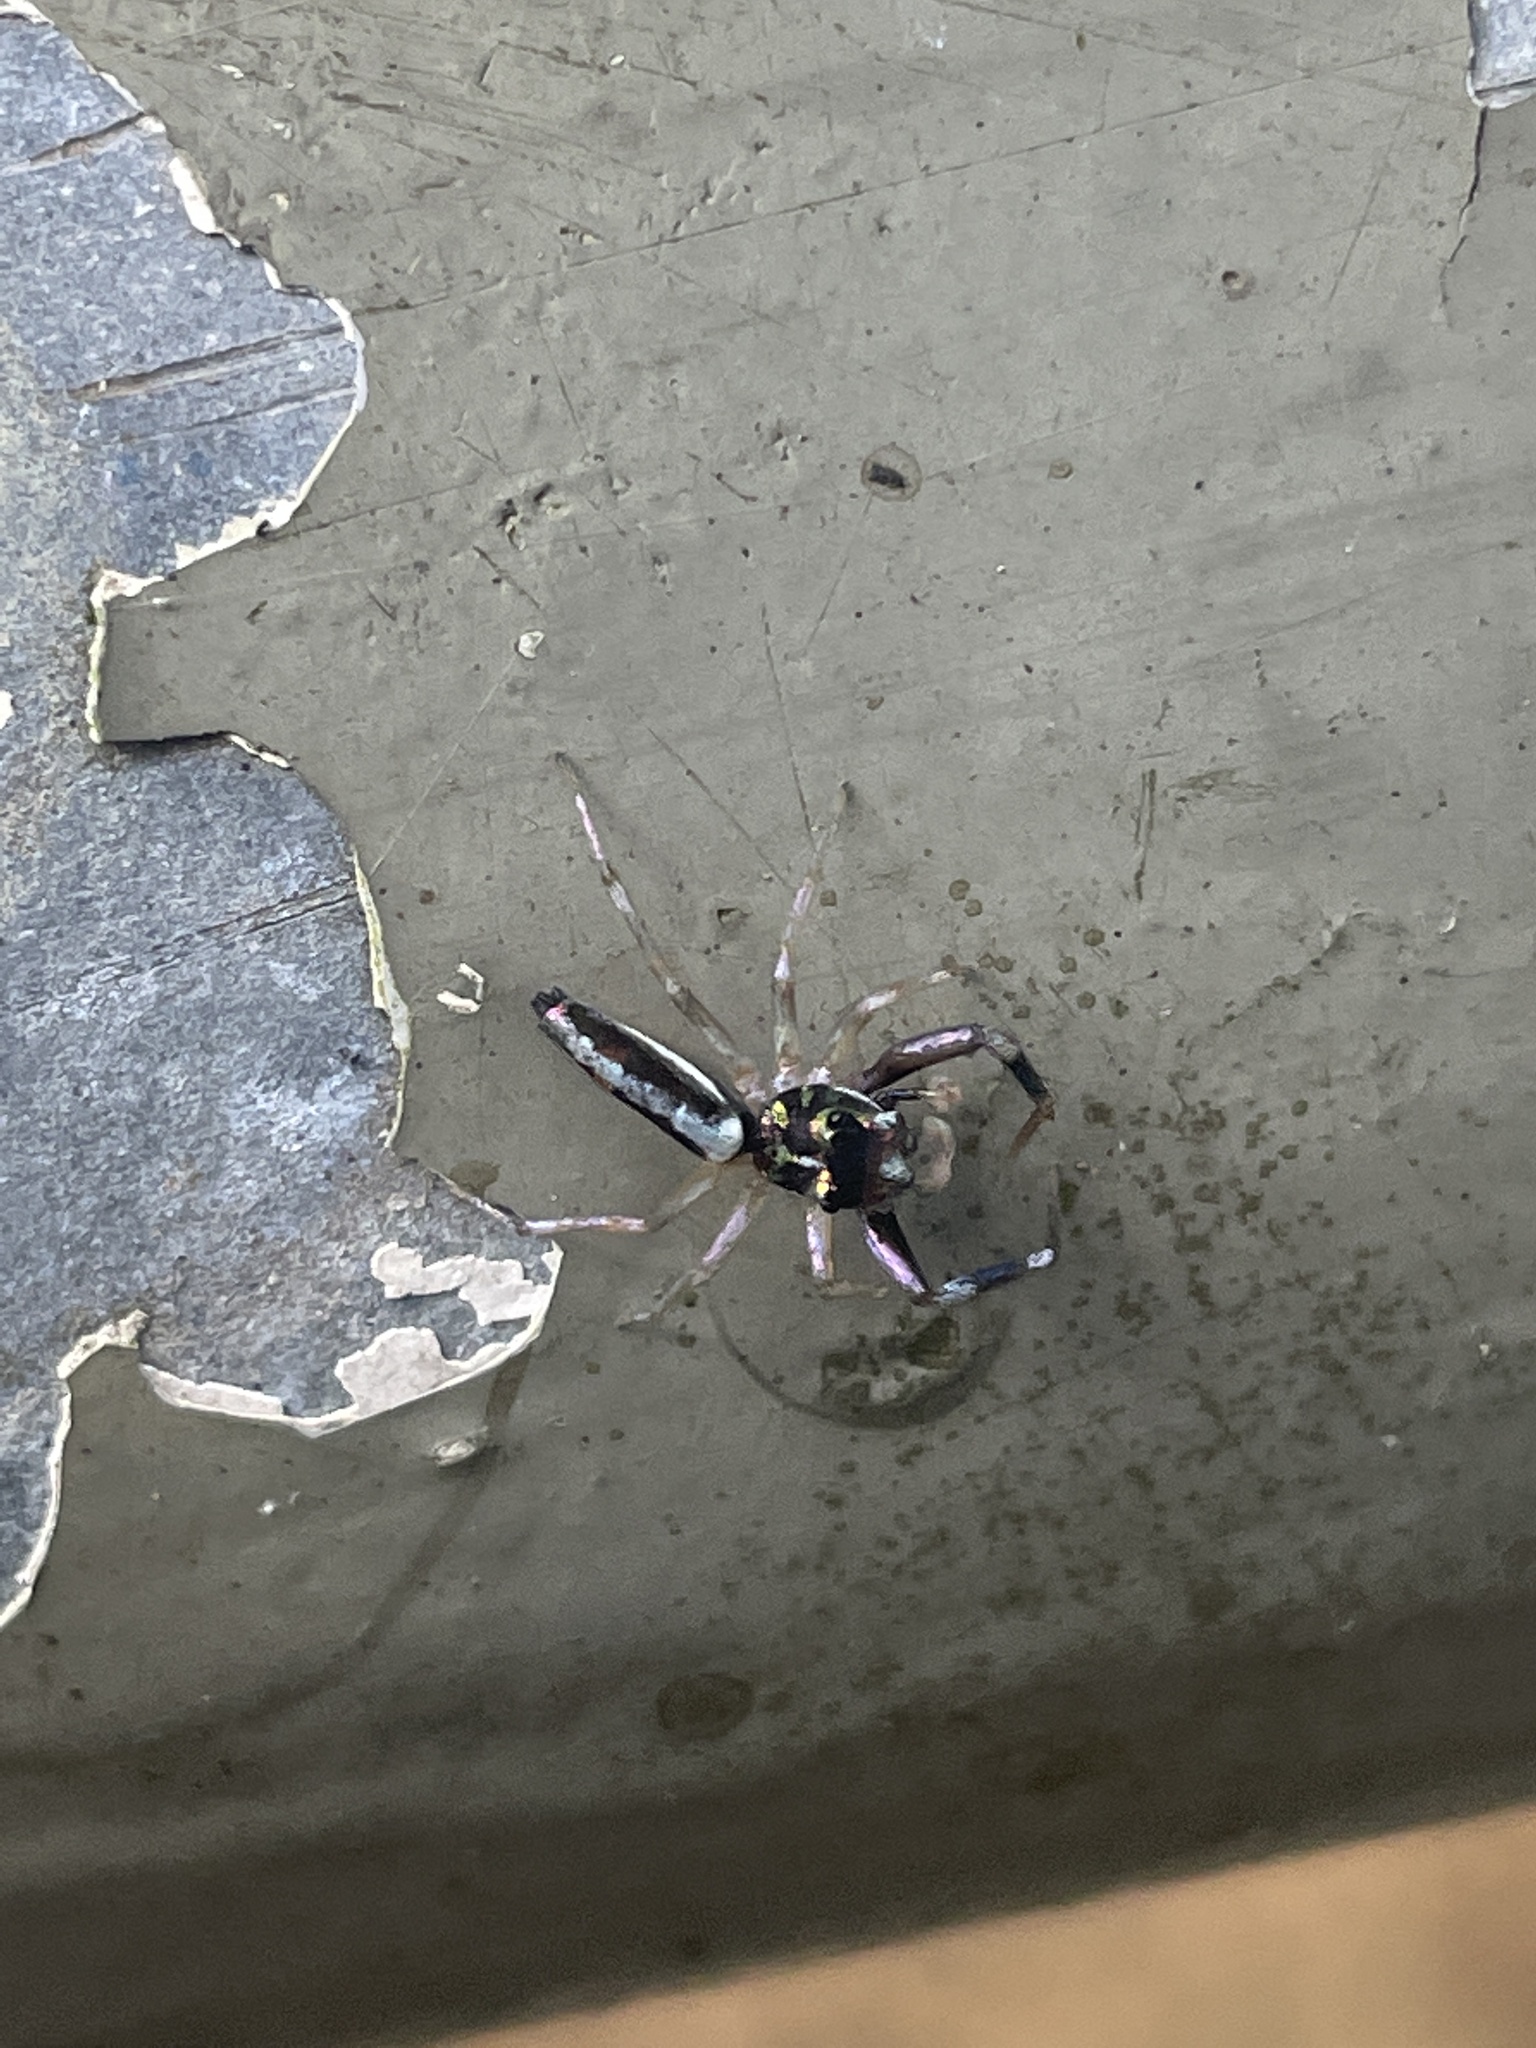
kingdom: Animalia
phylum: Arthropoda
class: Arachnida
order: Araneae
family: Salticidae
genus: Chrysilla
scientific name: Chrysilla acerosa
